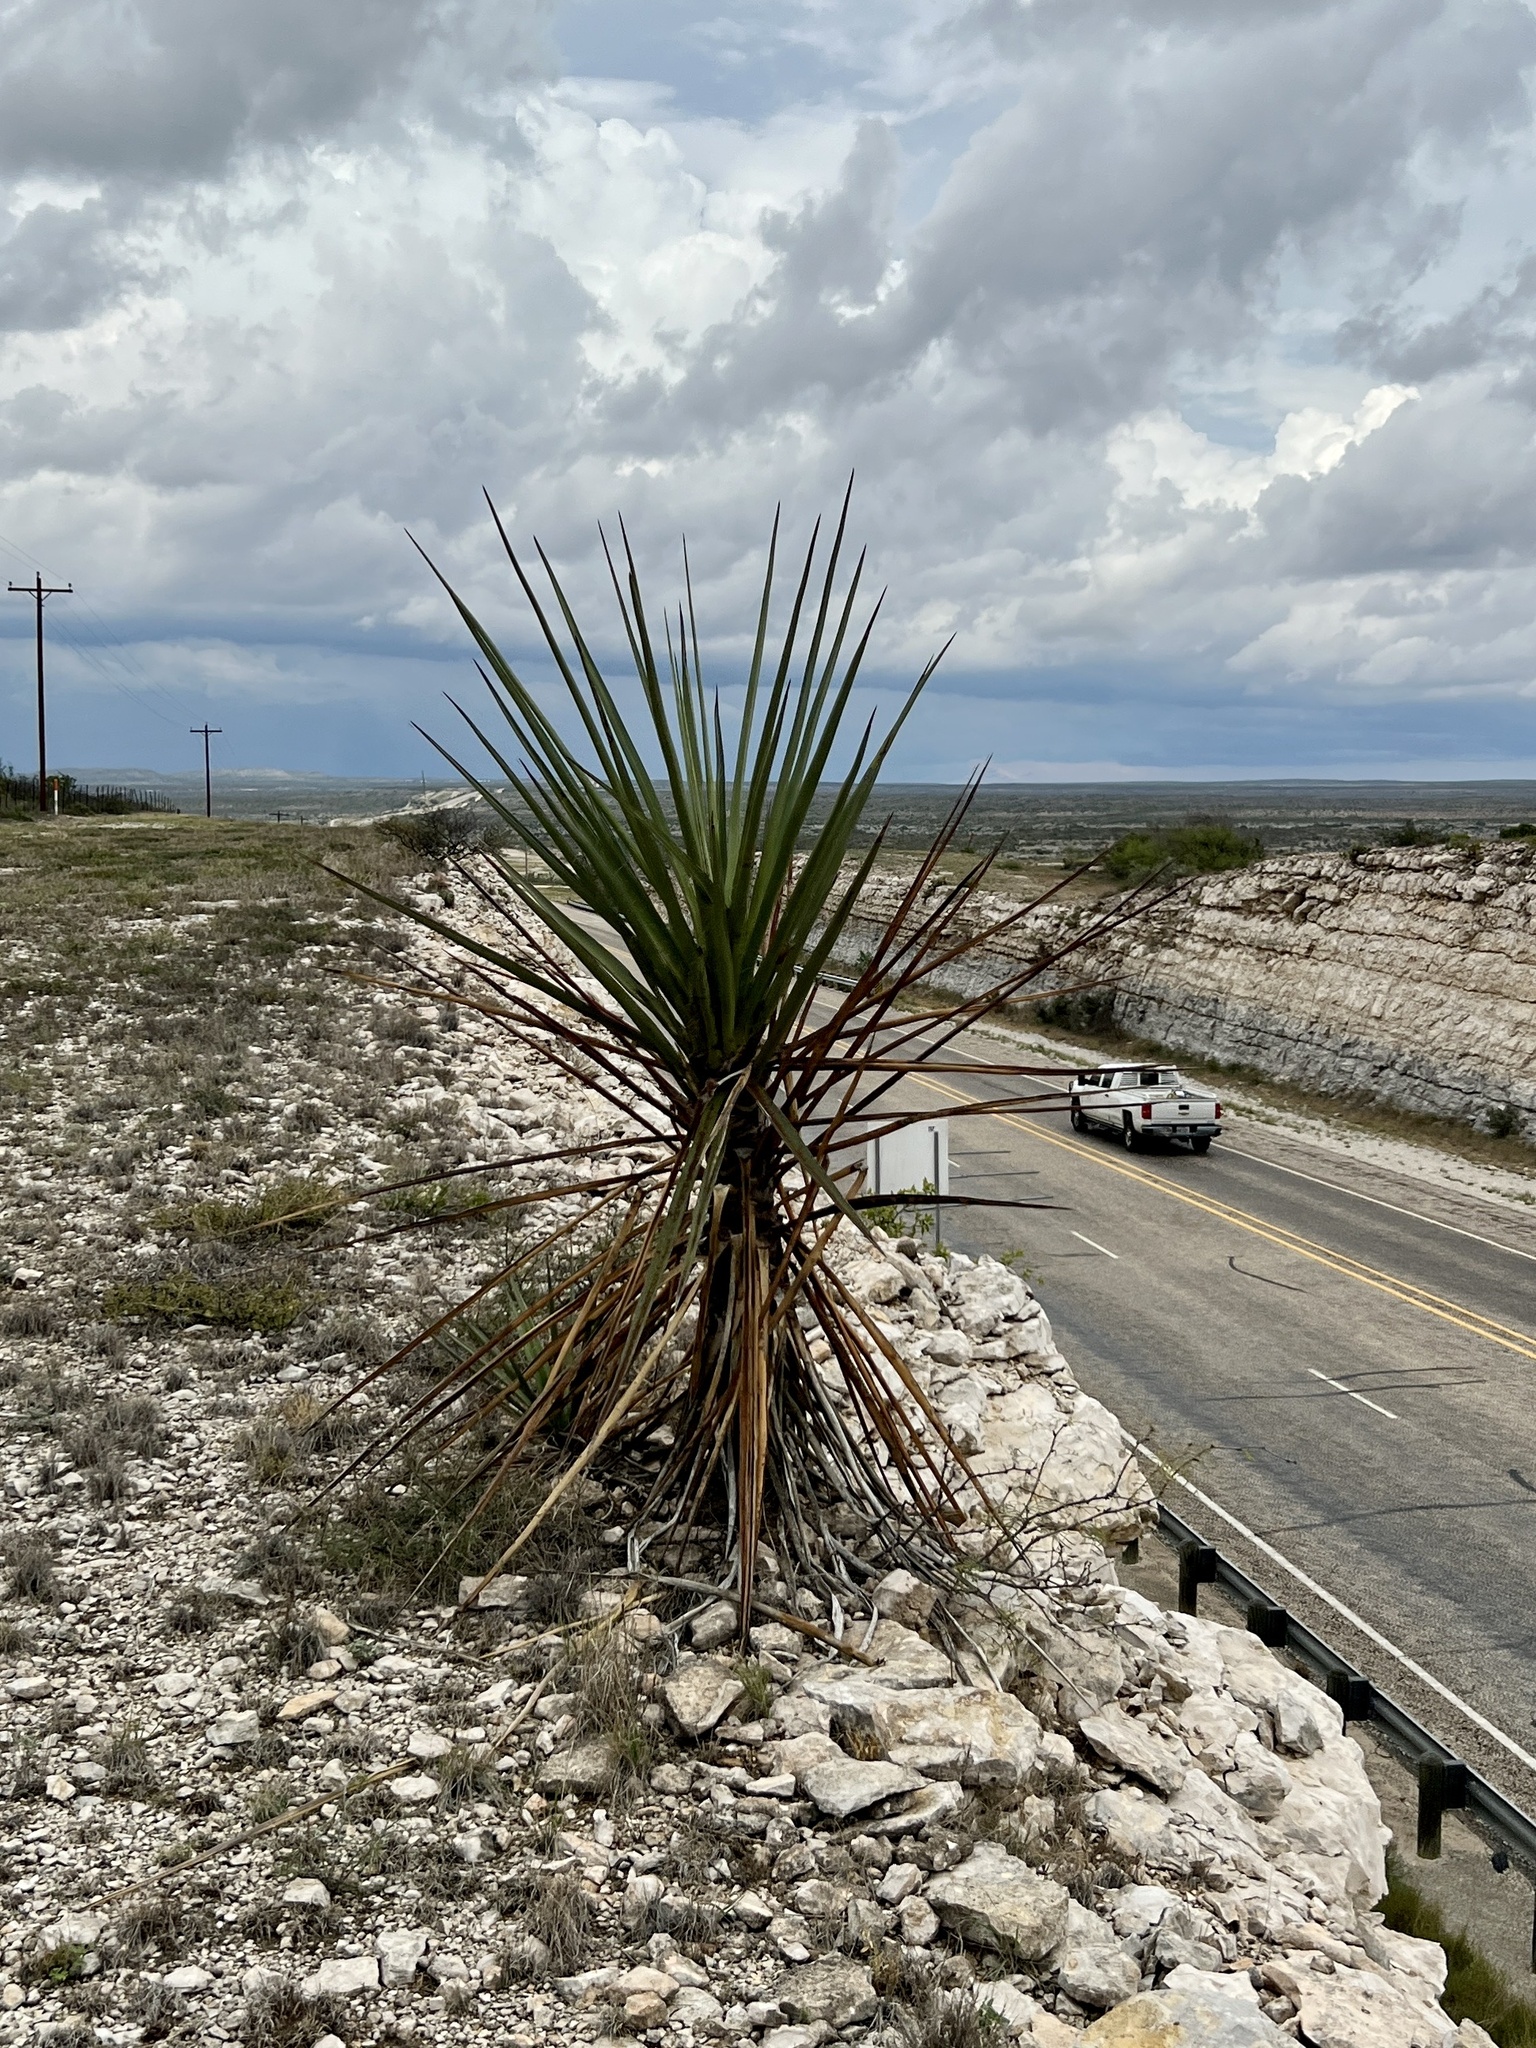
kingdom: Plantae
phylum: Tracheophyta
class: Liliopsida
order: Asparagales
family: Asparagaceae
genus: Yucca
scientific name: Yucca treculiana
